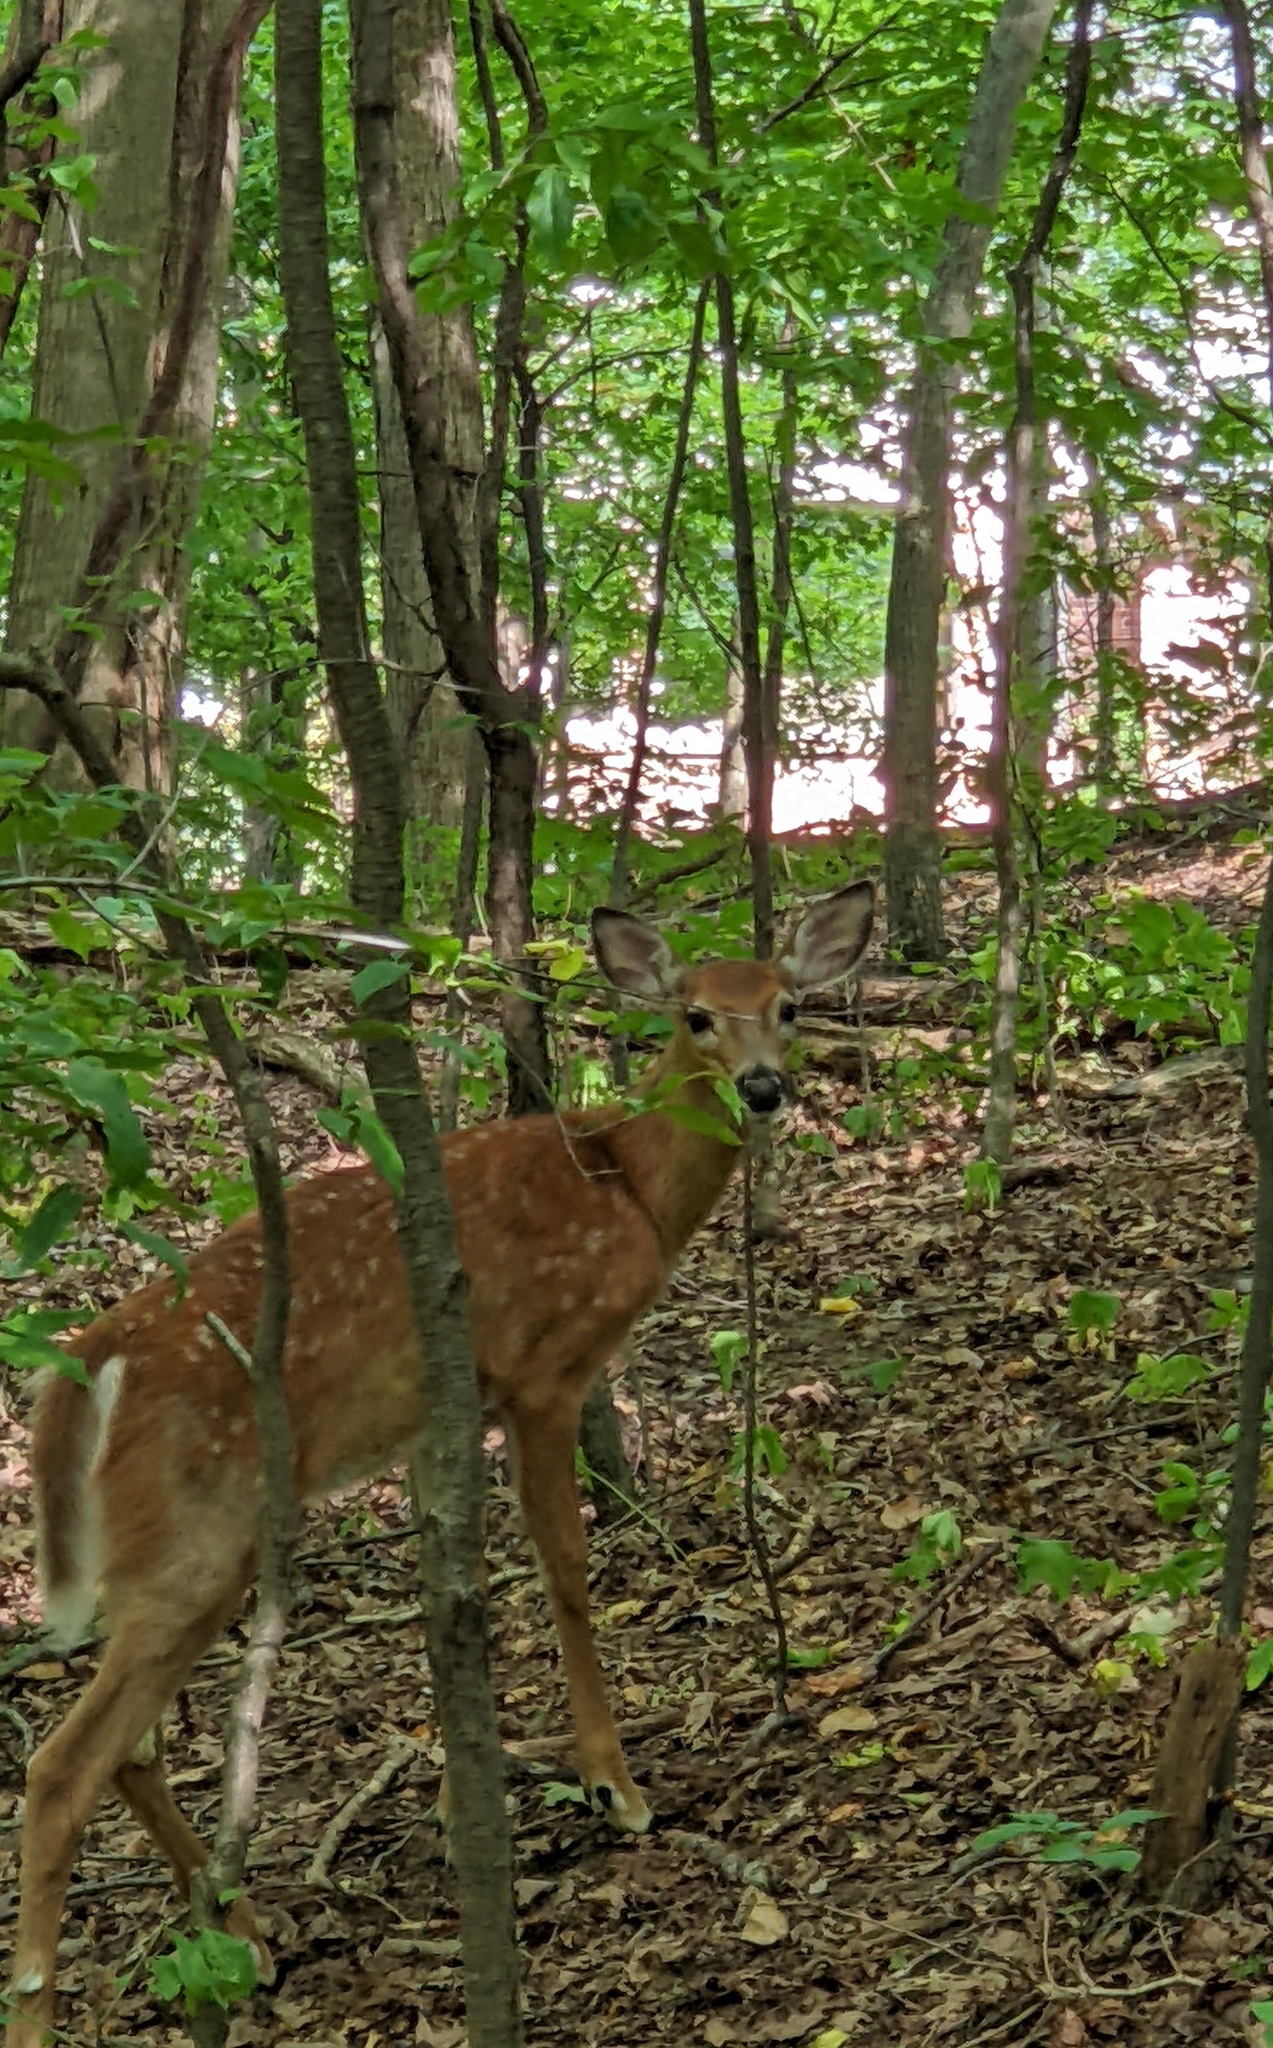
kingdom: Animalia
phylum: Chordata
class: Mammalia
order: Artiodactyla
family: Cervidae
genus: Odocoileus
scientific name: Odocoileus virginianus
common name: White-tailed deer
